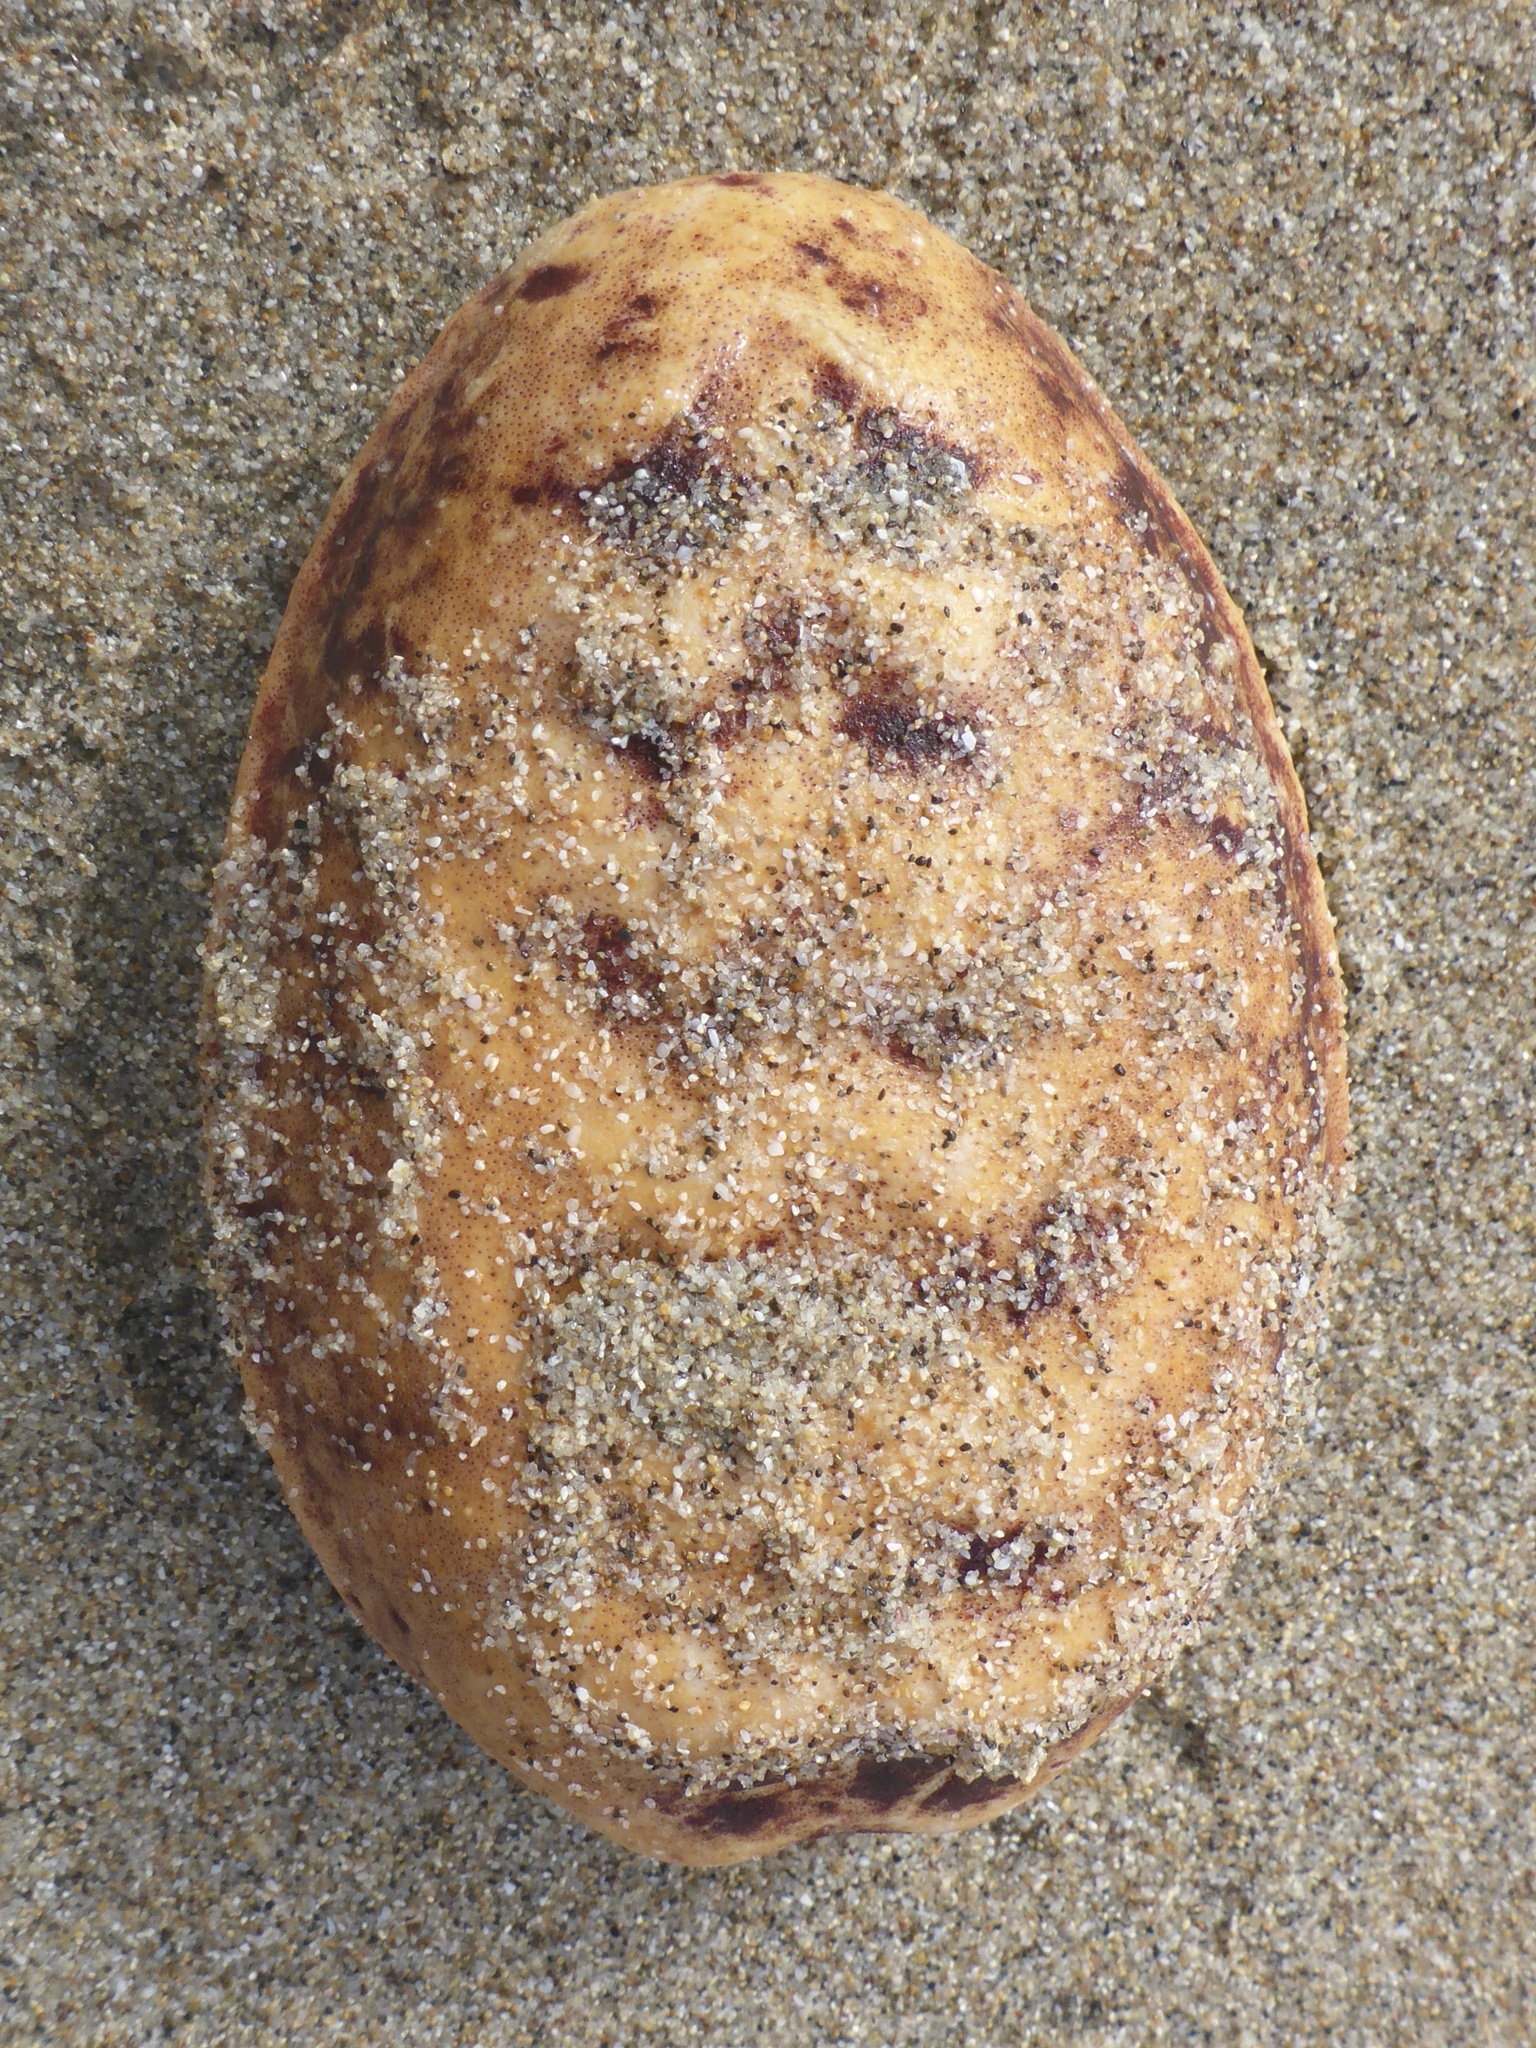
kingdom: Animalia
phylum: Mollusca
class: Polyplacophora
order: Chitonida
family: Acanthochitonidae
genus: Cryptochiton
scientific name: Cryptochiton stelleri
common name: Giant pacific chiton
